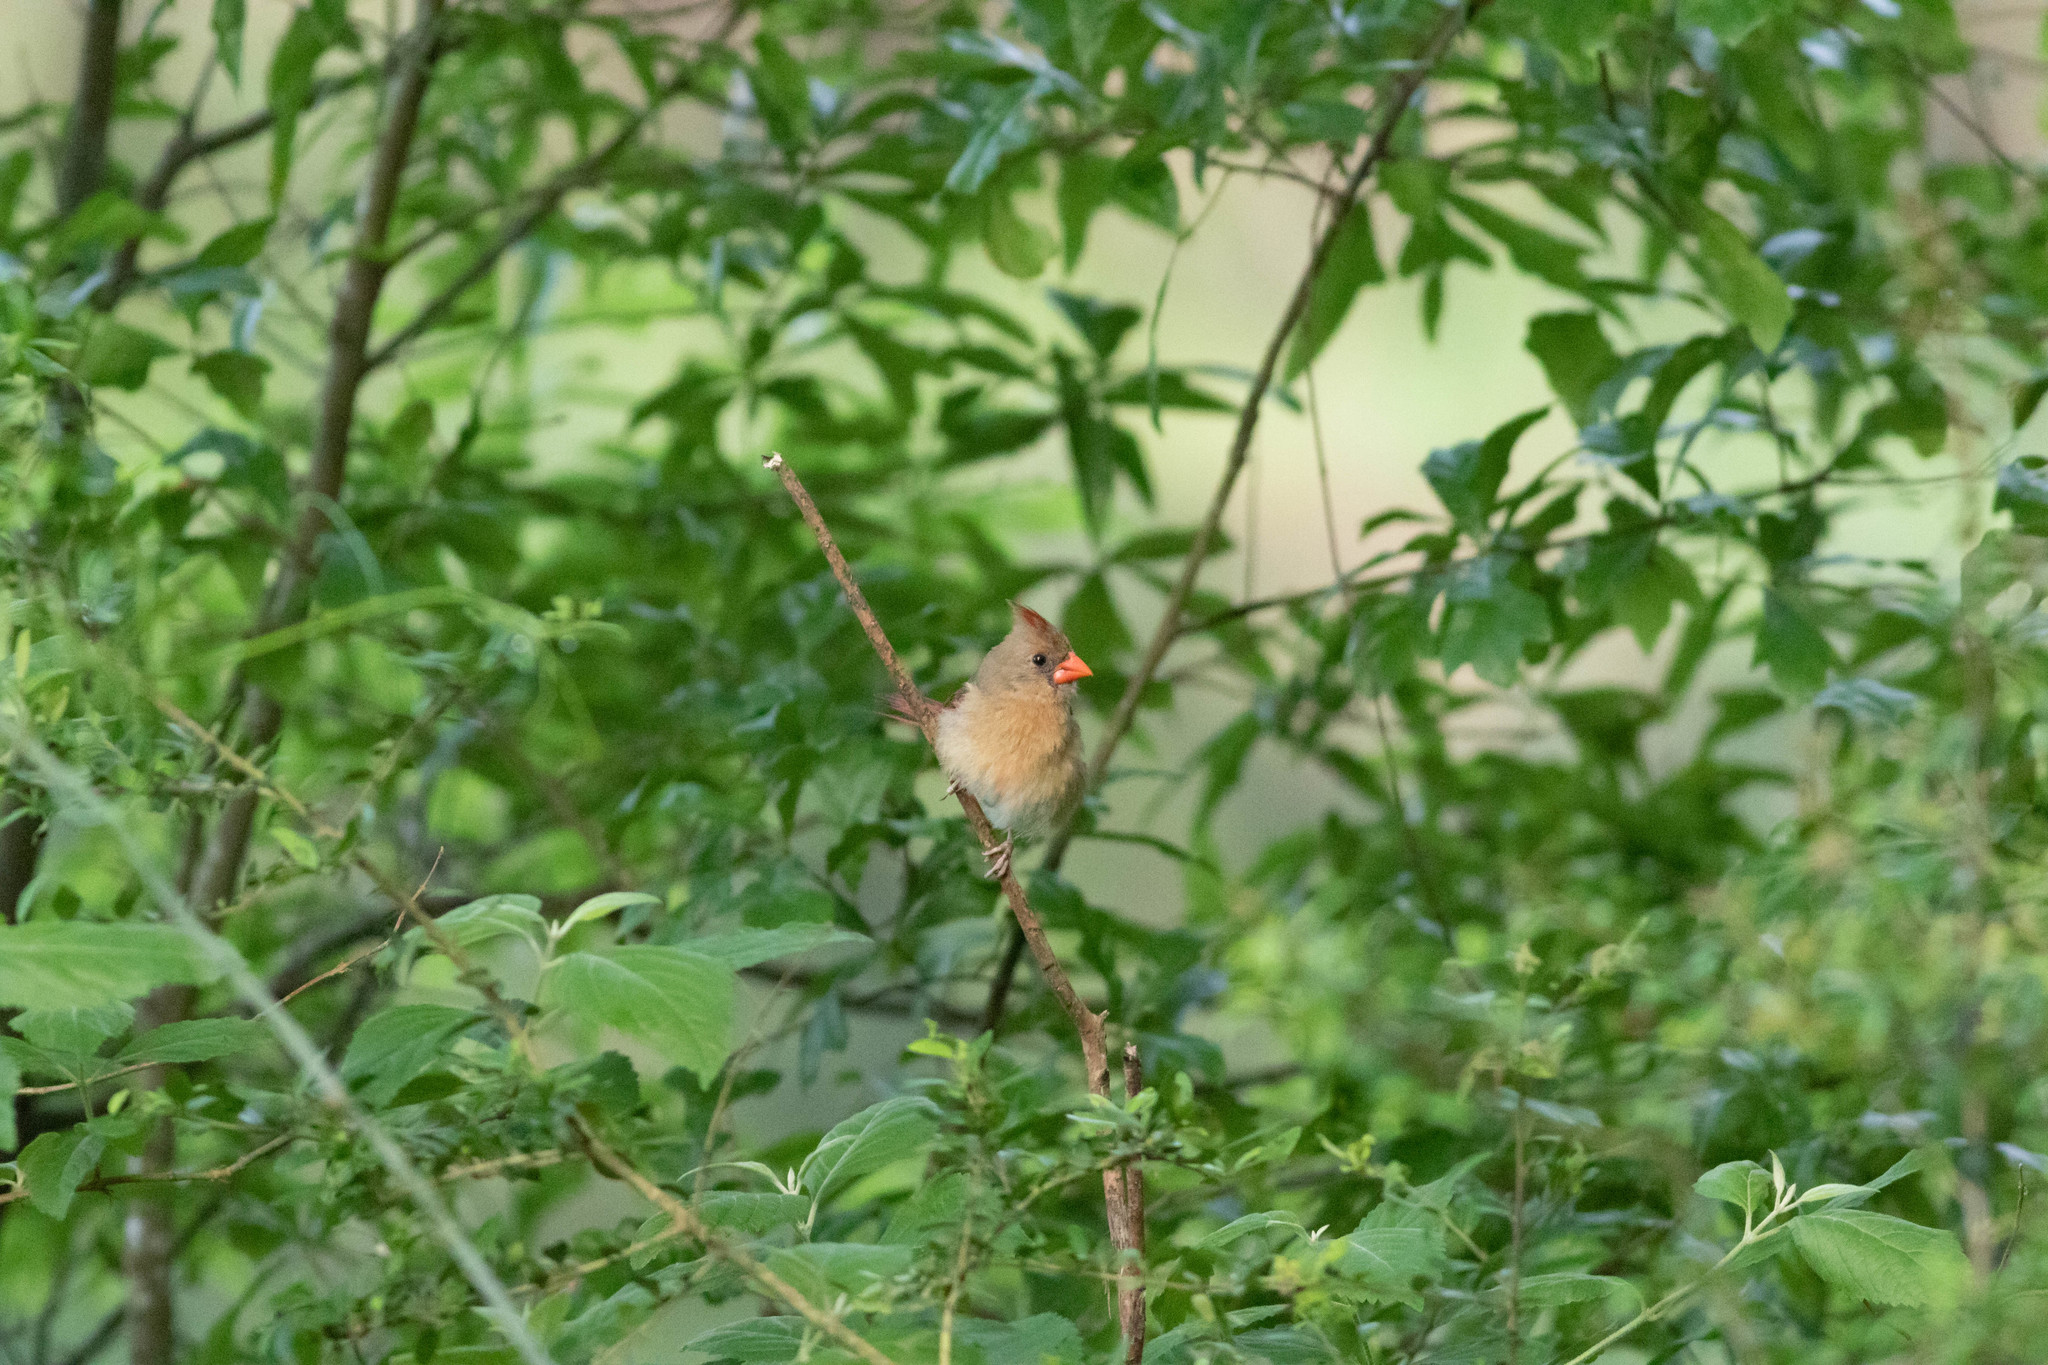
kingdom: Animalia
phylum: Chordata
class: Aves
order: Passeriformes
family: Cardinalidae
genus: Cardinalis
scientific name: Cardinalis cardinalis
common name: Northern cardinal
